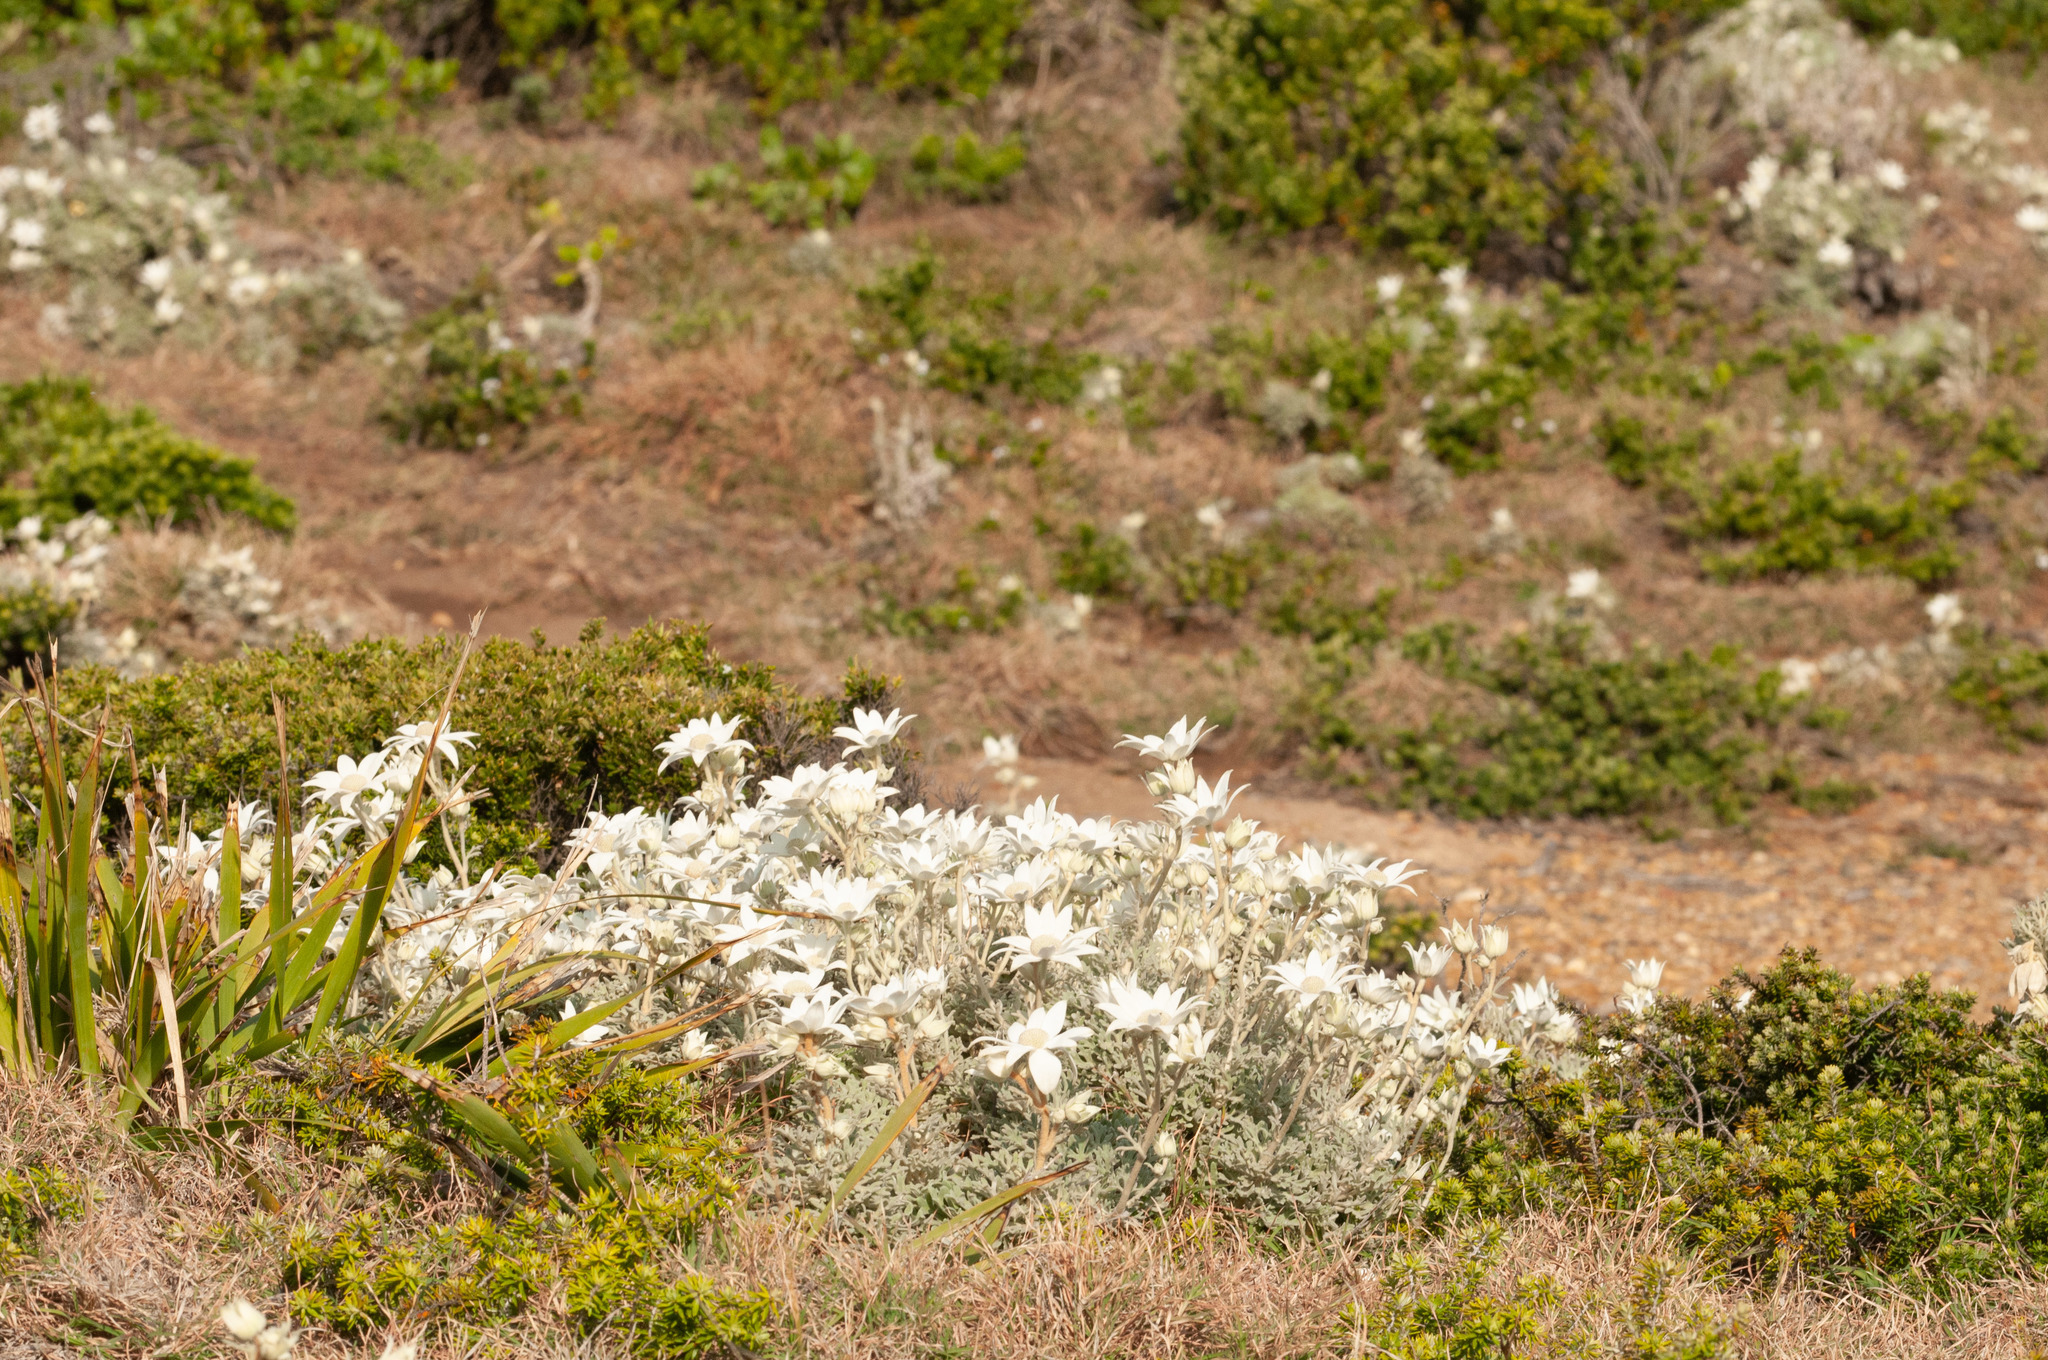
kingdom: Plantae
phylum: Tracheophyta
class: Magnoliopsida
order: Apiales
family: Apiaceae
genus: Actinotus
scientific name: Actinotus helianthi
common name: Flannel-flower
